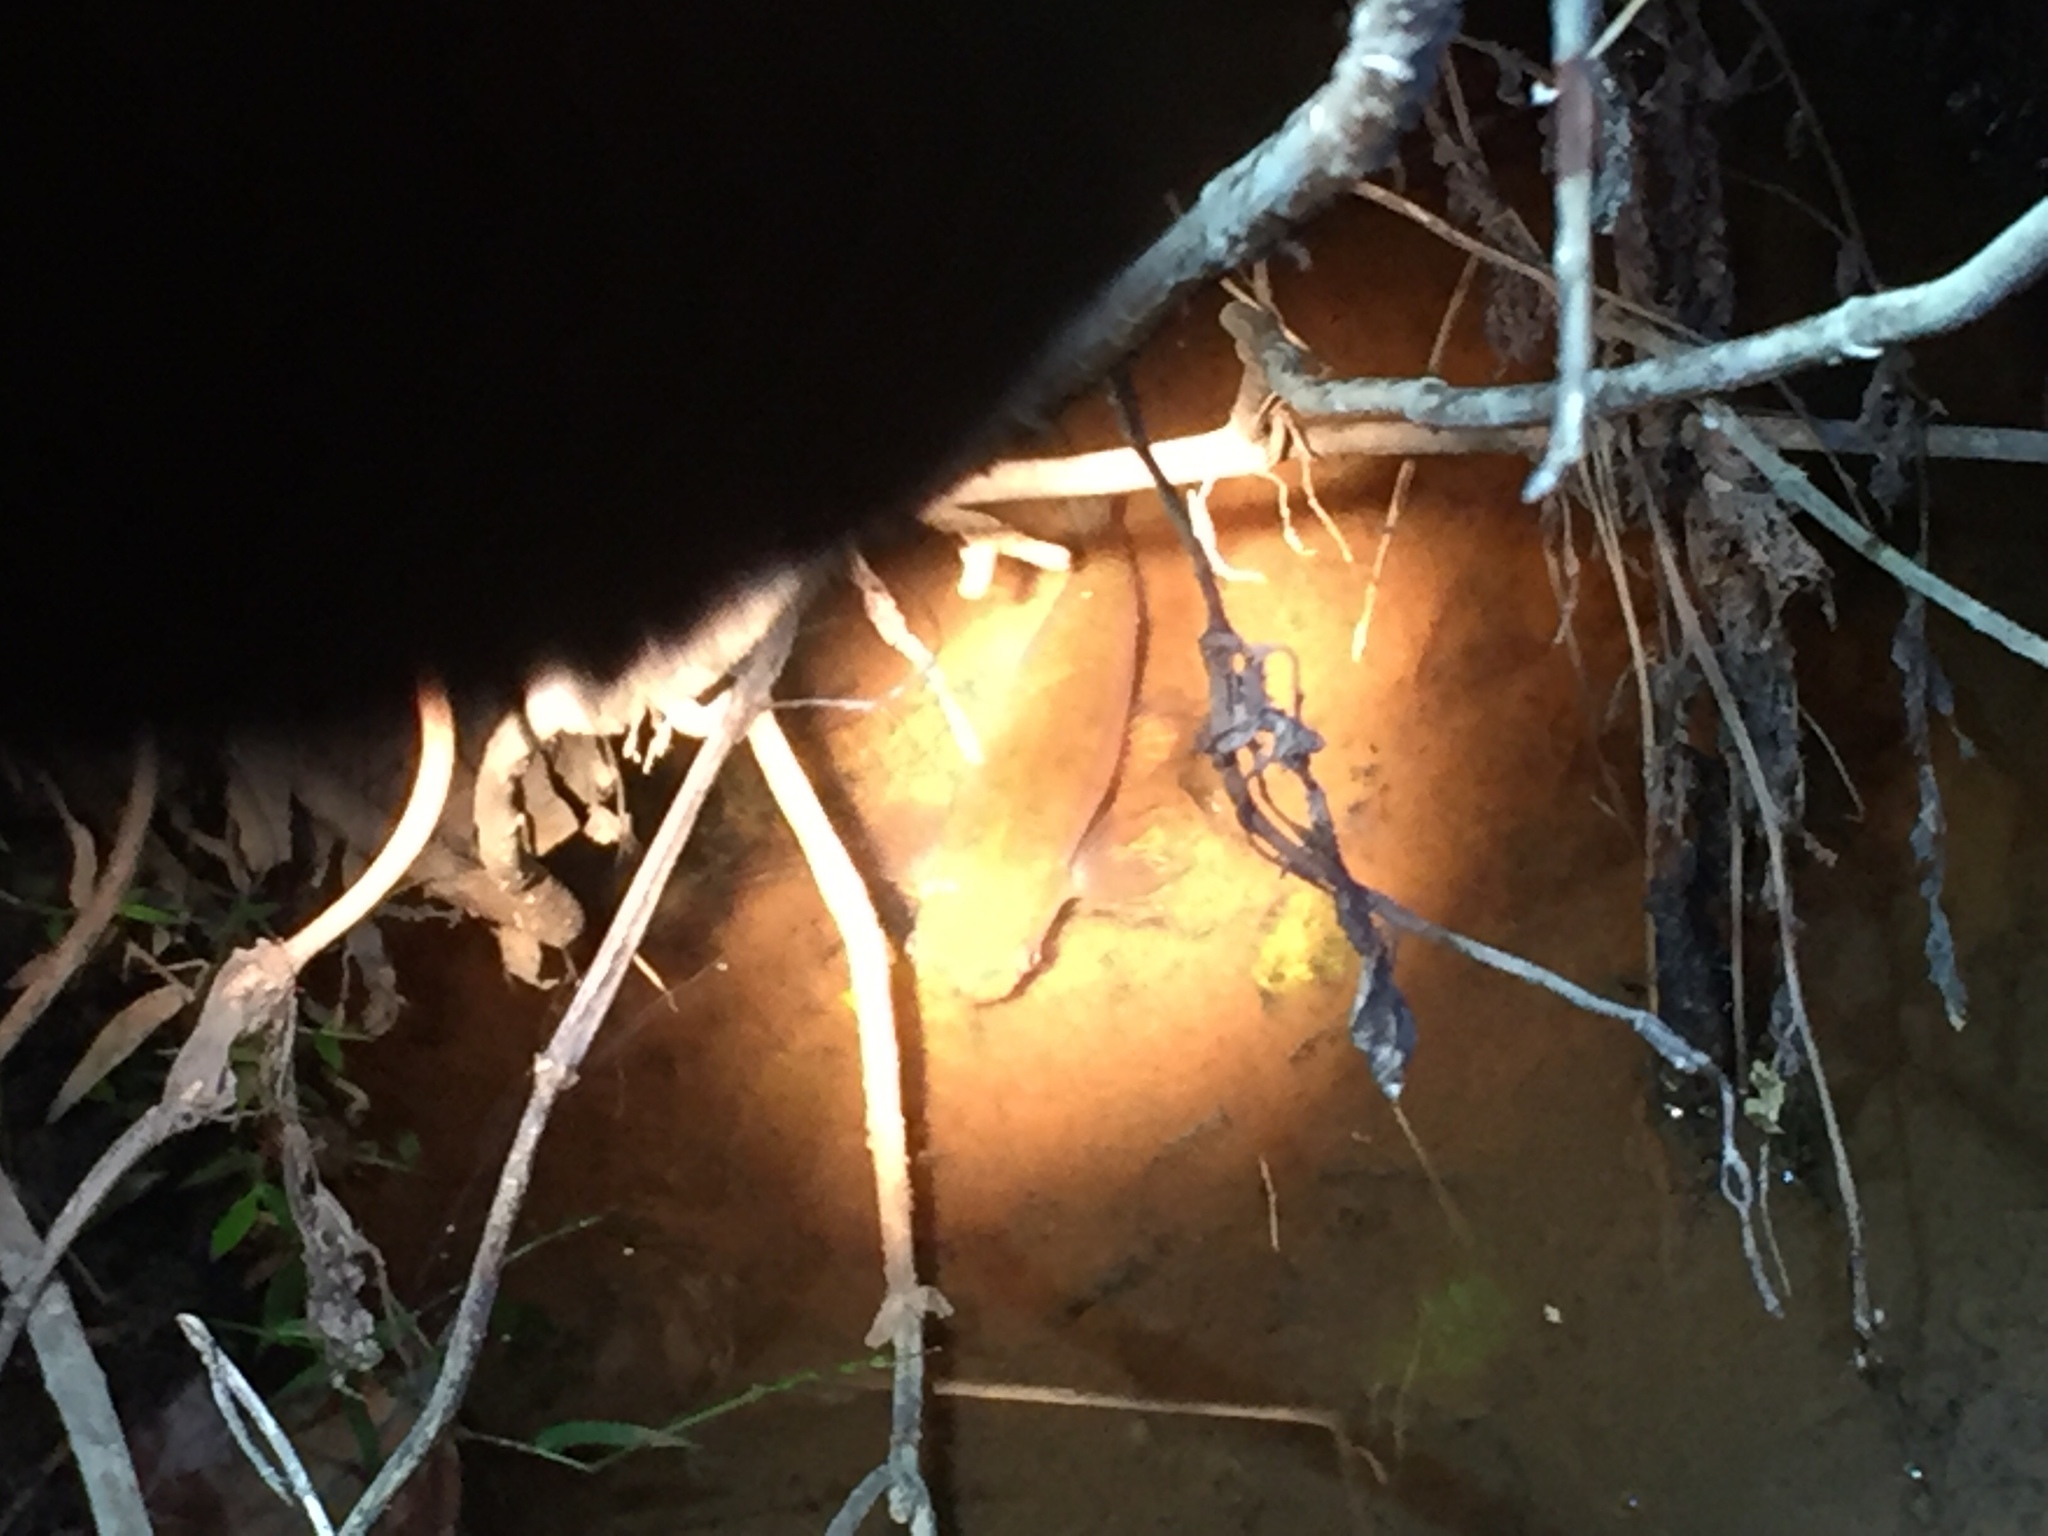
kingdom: Animalia
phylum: Chordata
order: Osmeriformes
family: Galaxiidae
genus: Galaxias
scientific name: Galaxias fasciatus
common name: Banded kokopu
